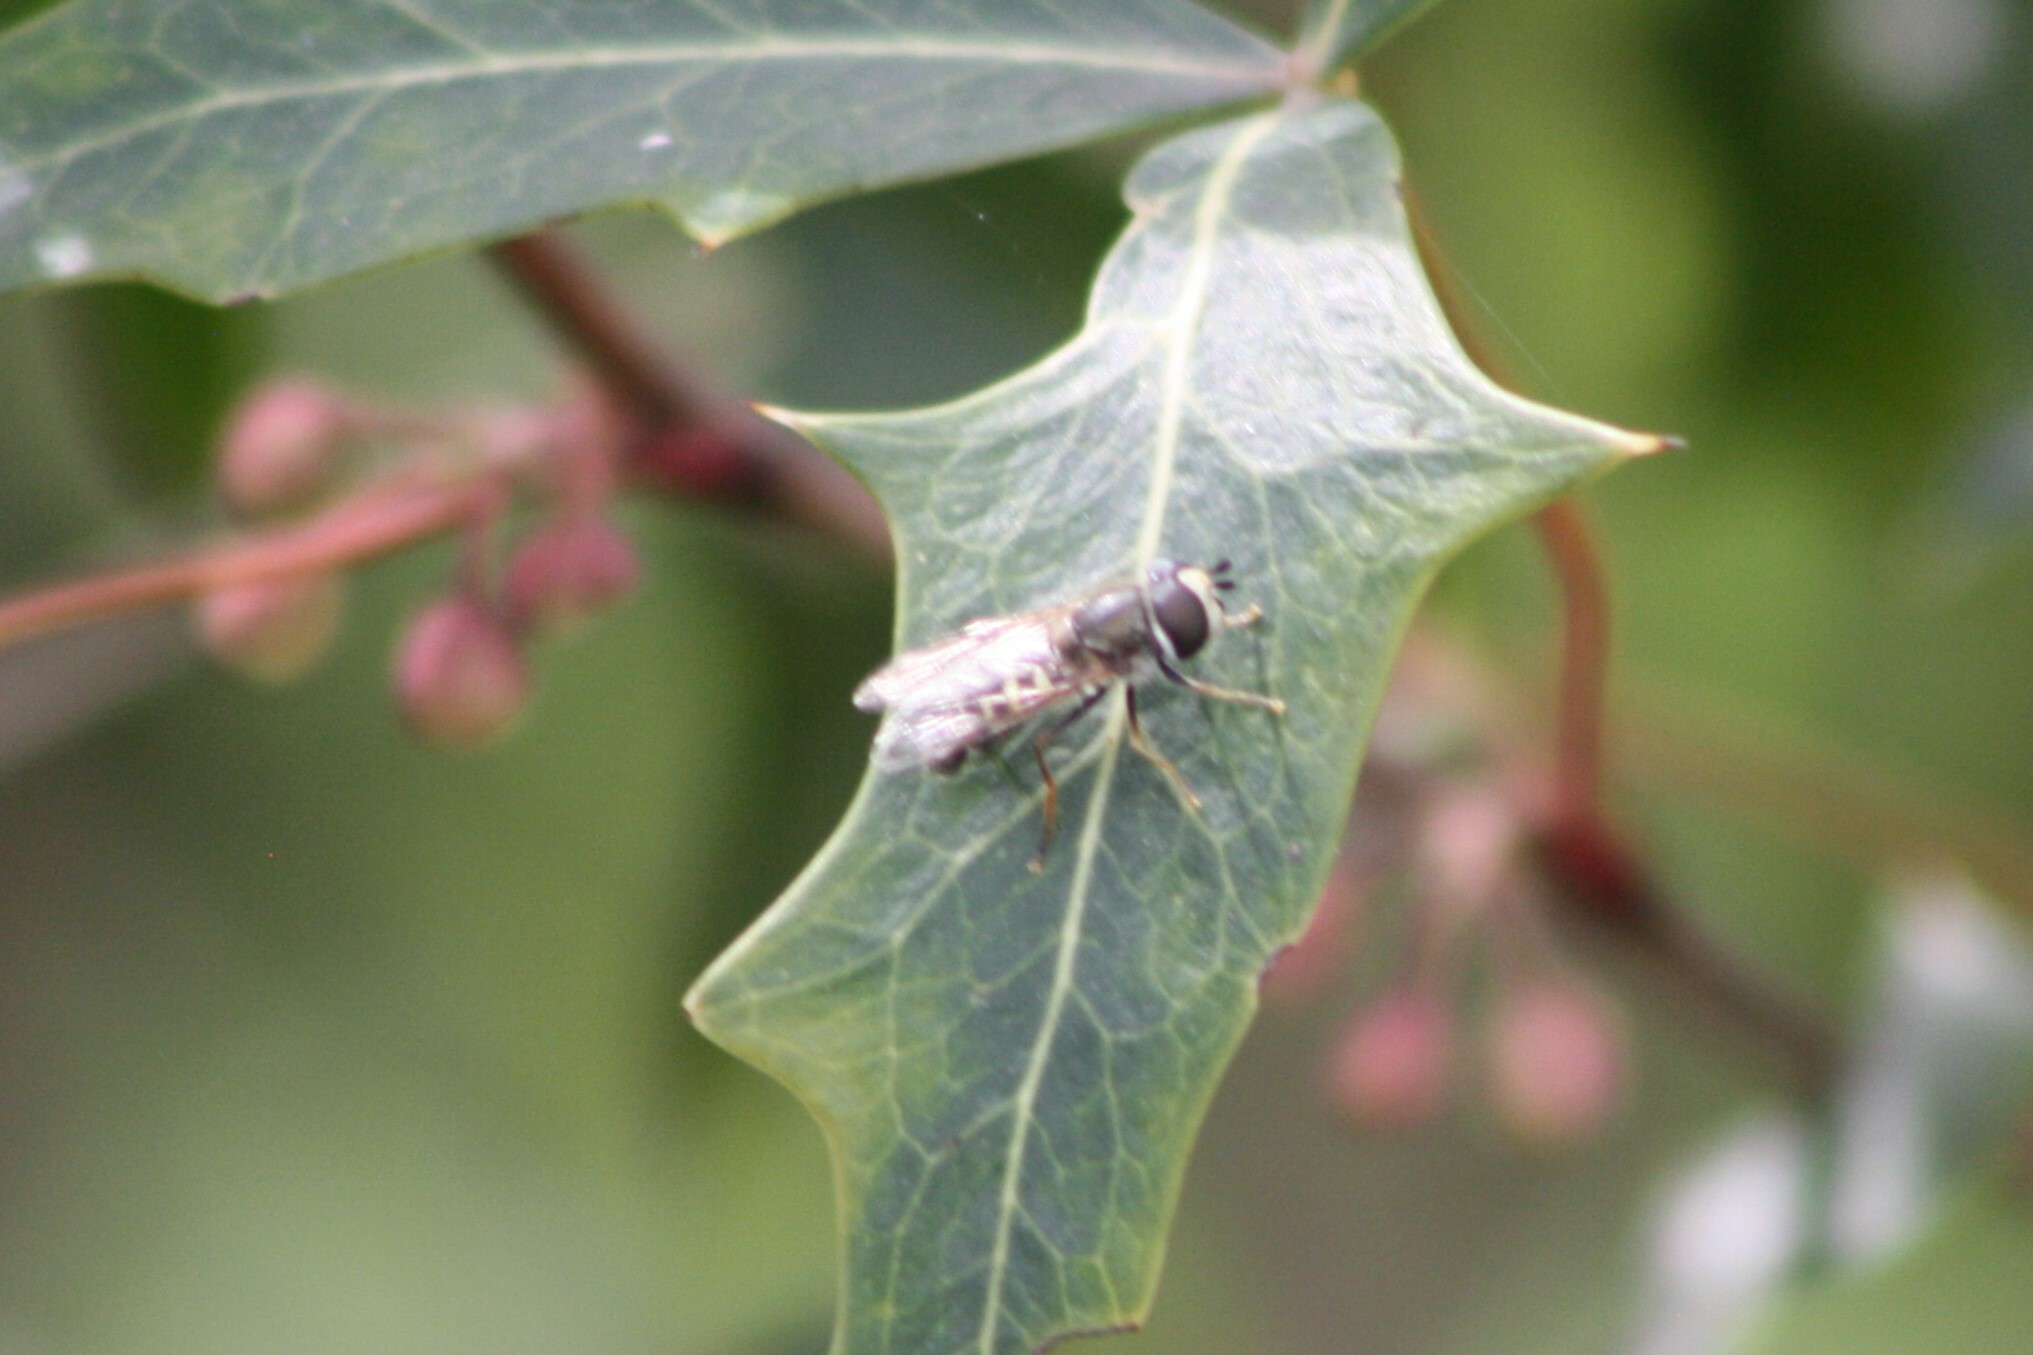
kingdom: Animalia
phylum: Arthropoda
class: Insecta
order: Diptera
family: Syrphidae
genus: Eupeodes
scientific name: Eupeodes volucris
